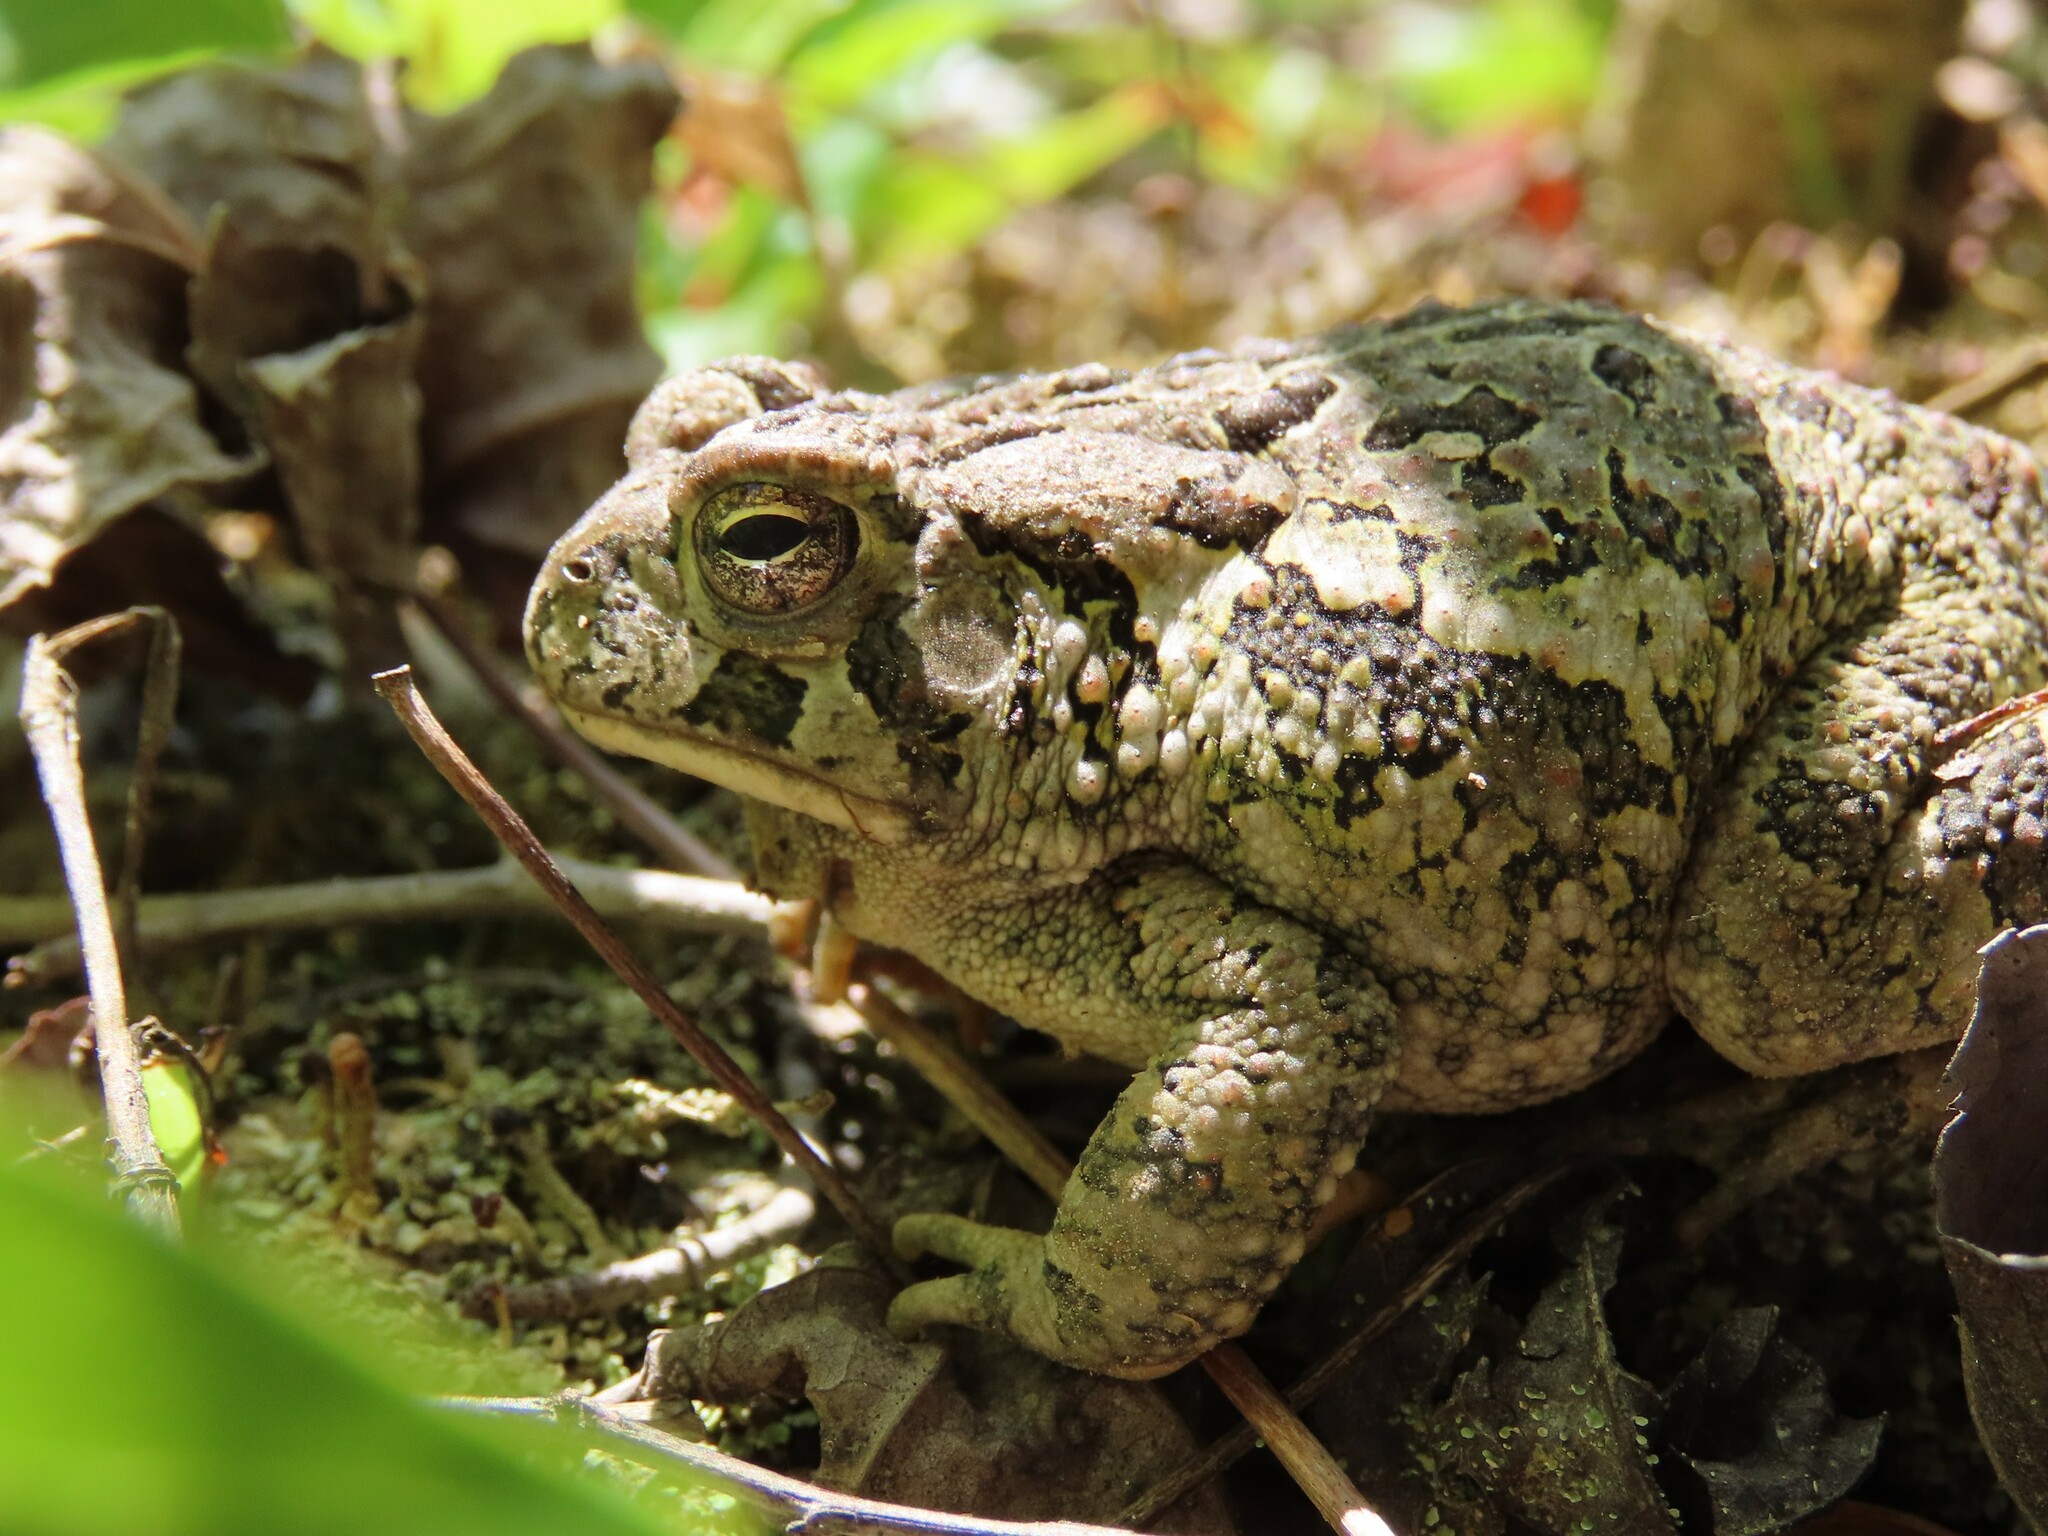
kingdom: Animalia
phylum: Chordata
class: Amphibia
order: Anura
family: Bufonidae
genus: Anaxyrus
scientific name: Anaxyrus fowleri
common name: Fowler's toad
